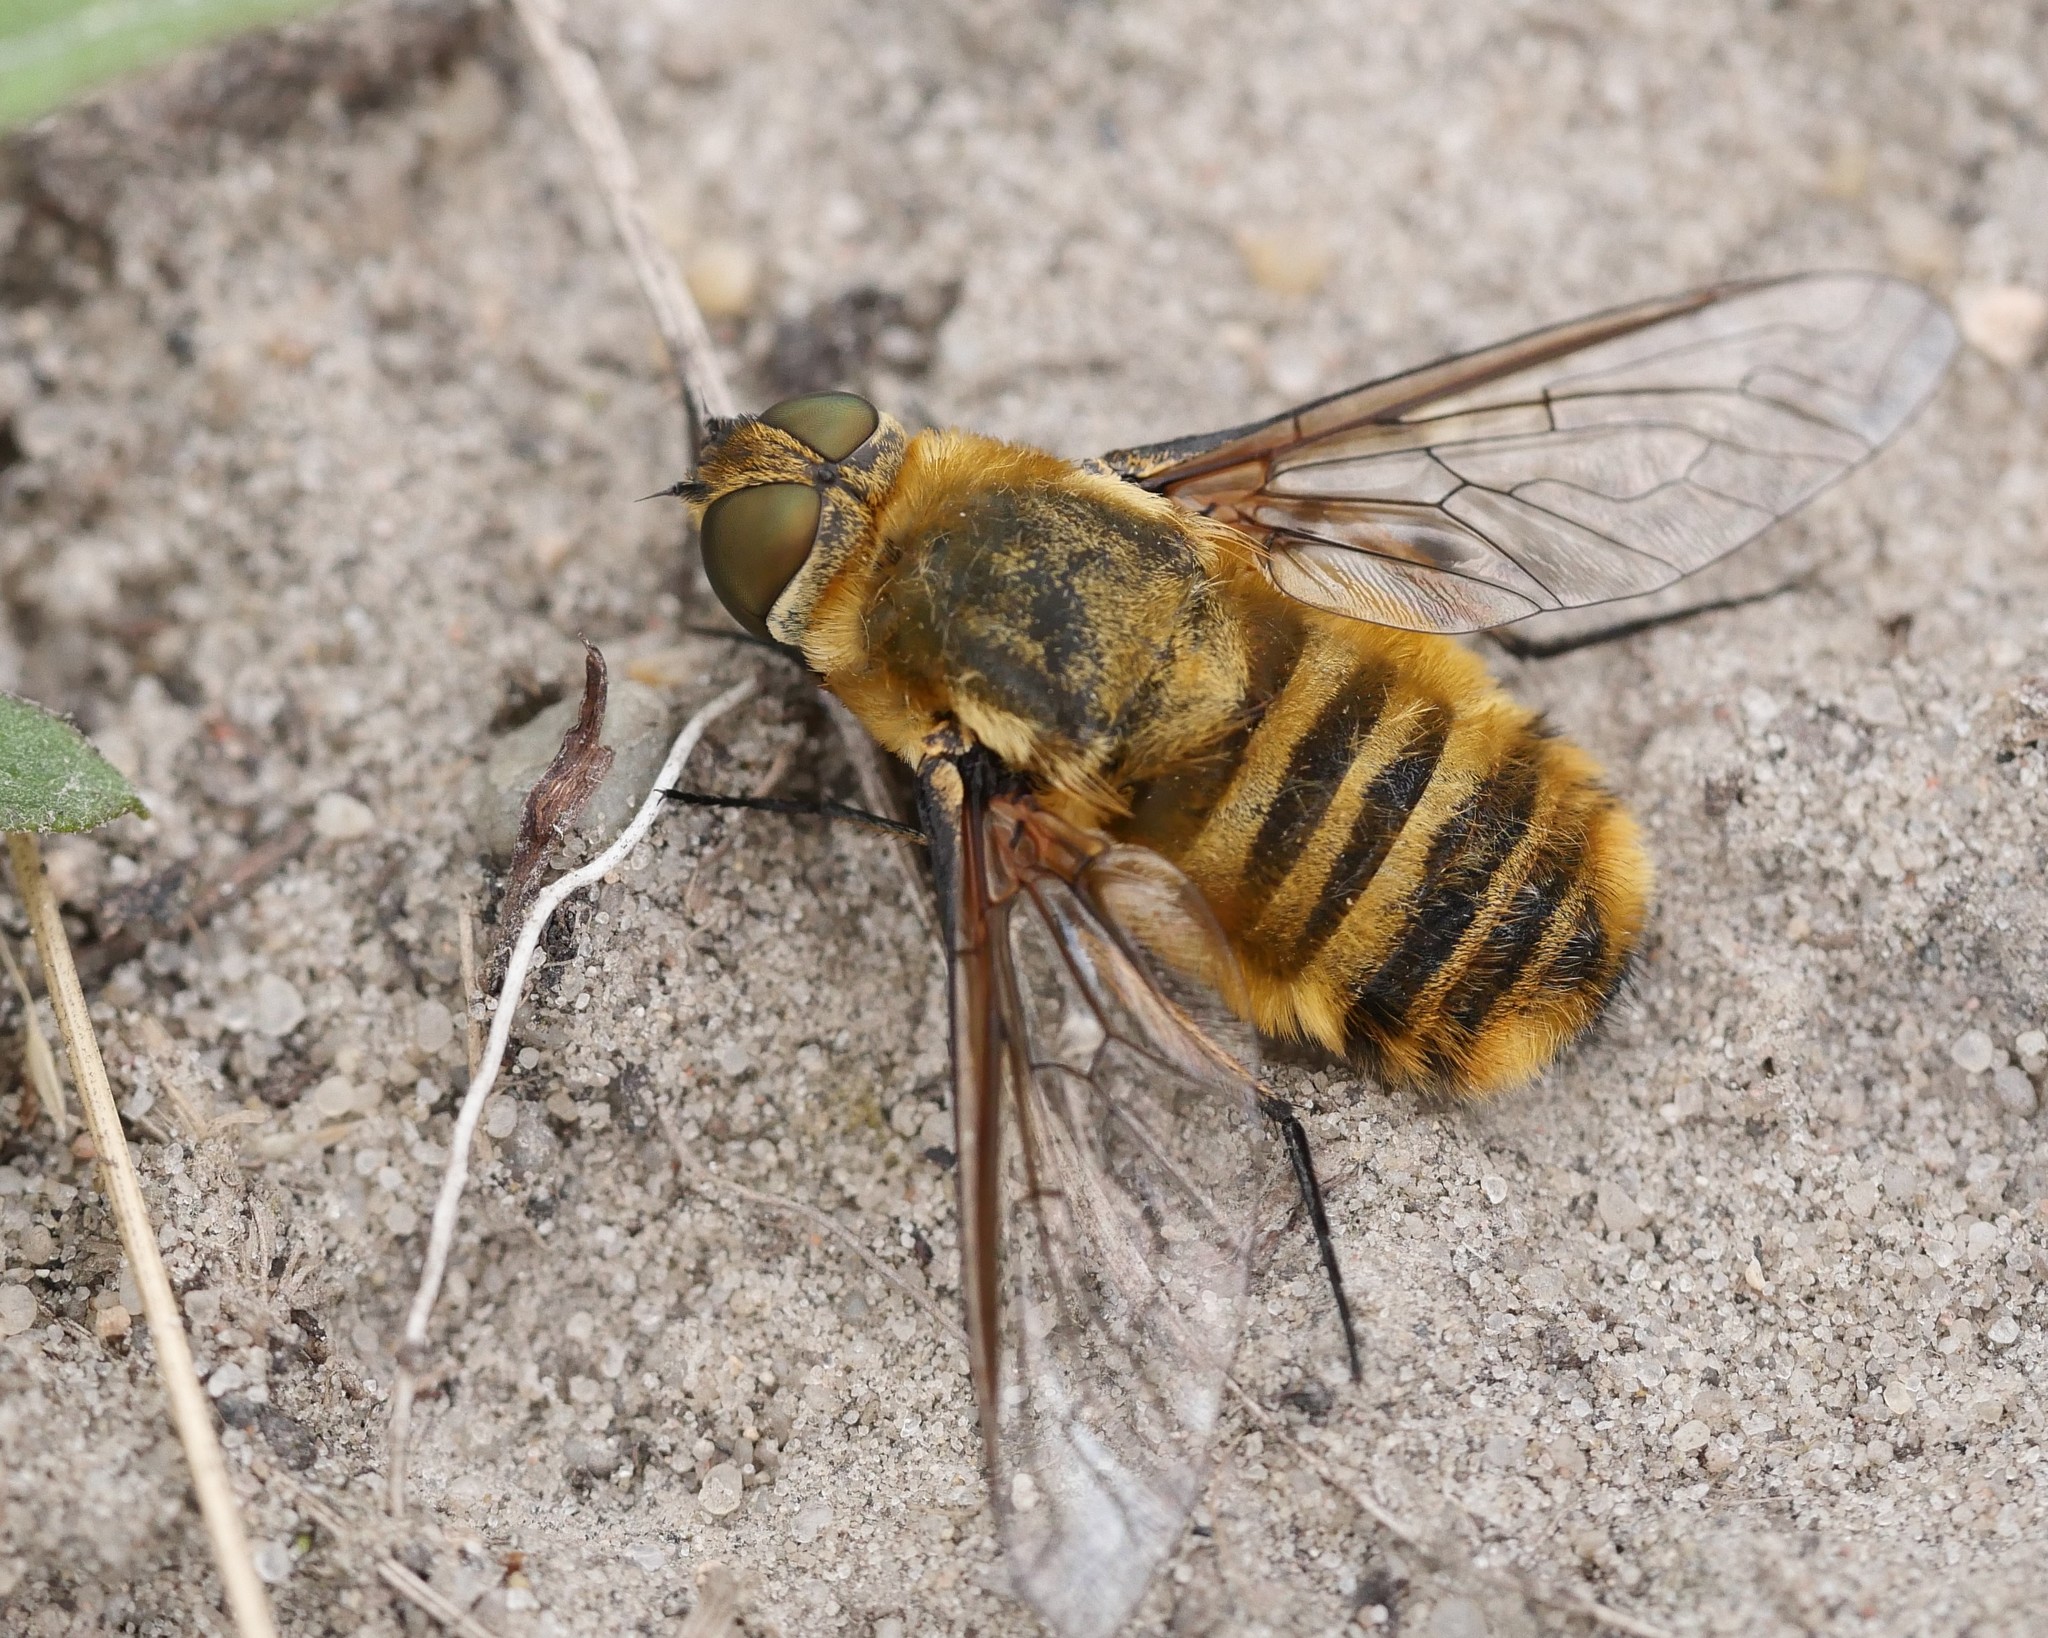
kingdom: Animalia
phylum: Arthropoda
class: Insecta
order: Diptera
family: Bombyliidae
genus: Villa
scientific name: Villa hottentotta
